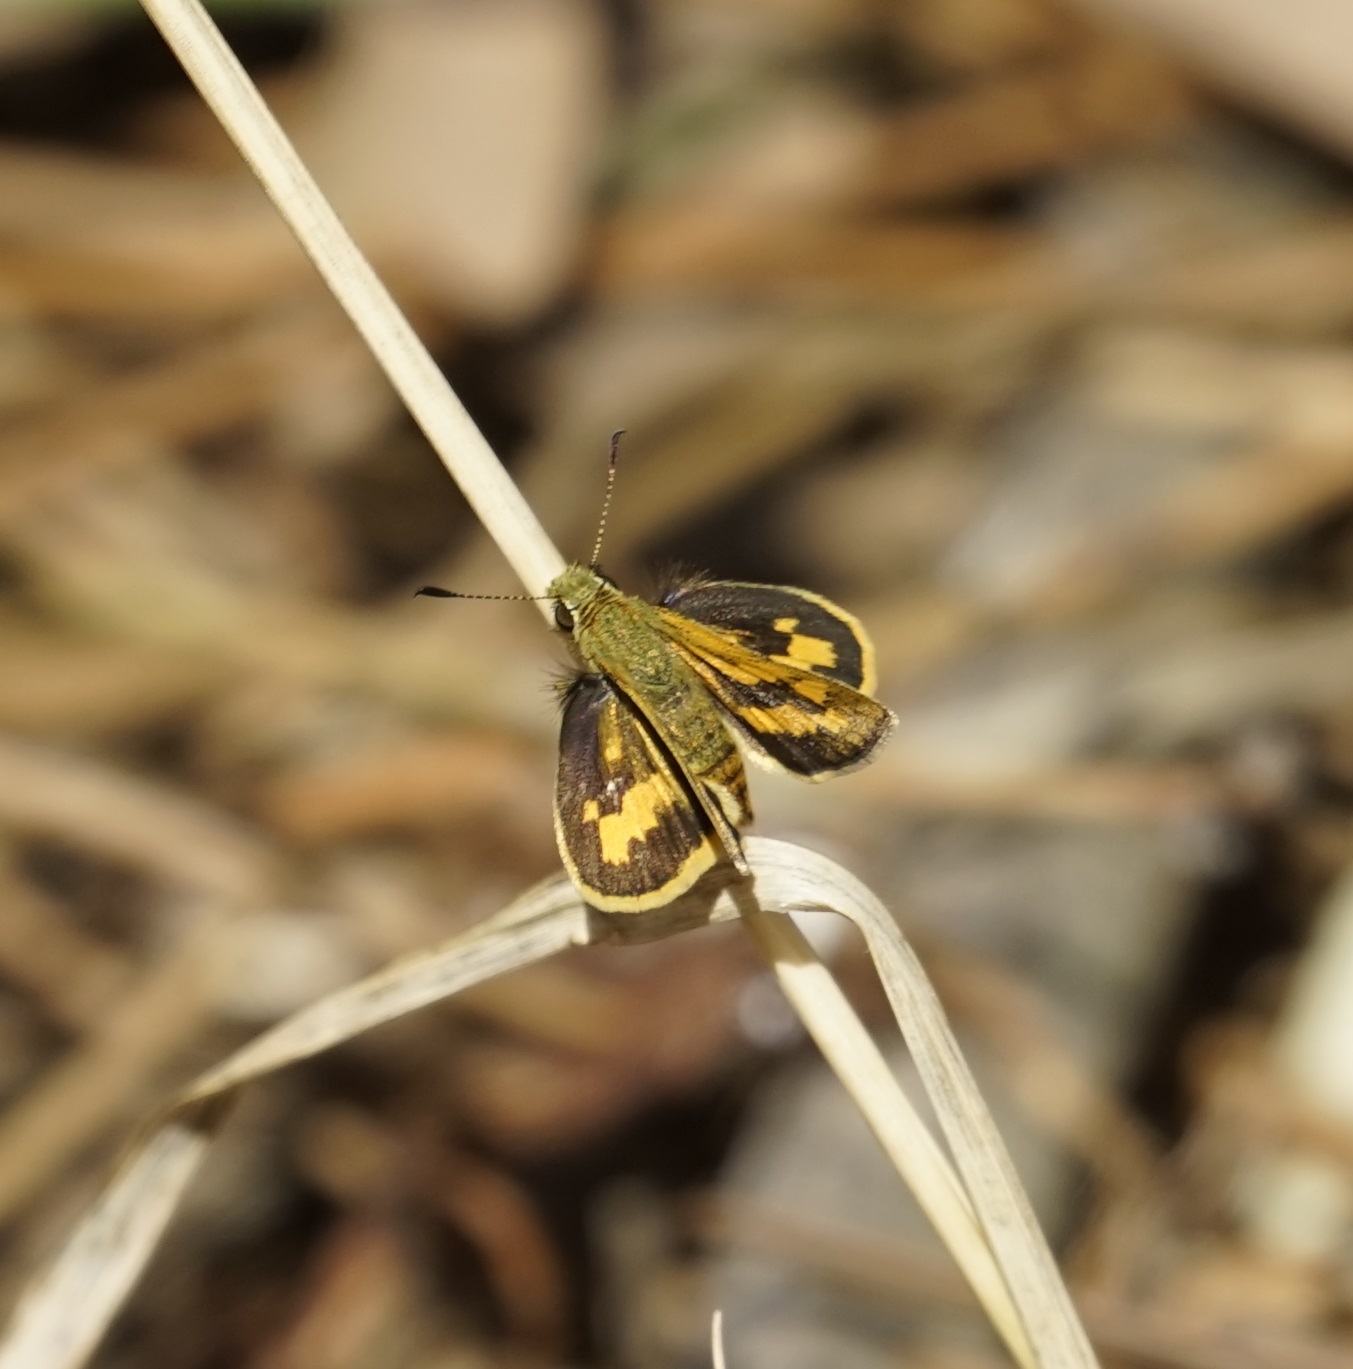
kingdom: Animalia
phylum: Arthropoda
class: Insecta
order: Lepidoptera
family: Hesperiidae
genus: Ocybadistes
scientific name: Ocybadistes walkeri
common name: Yellow-banded dart
